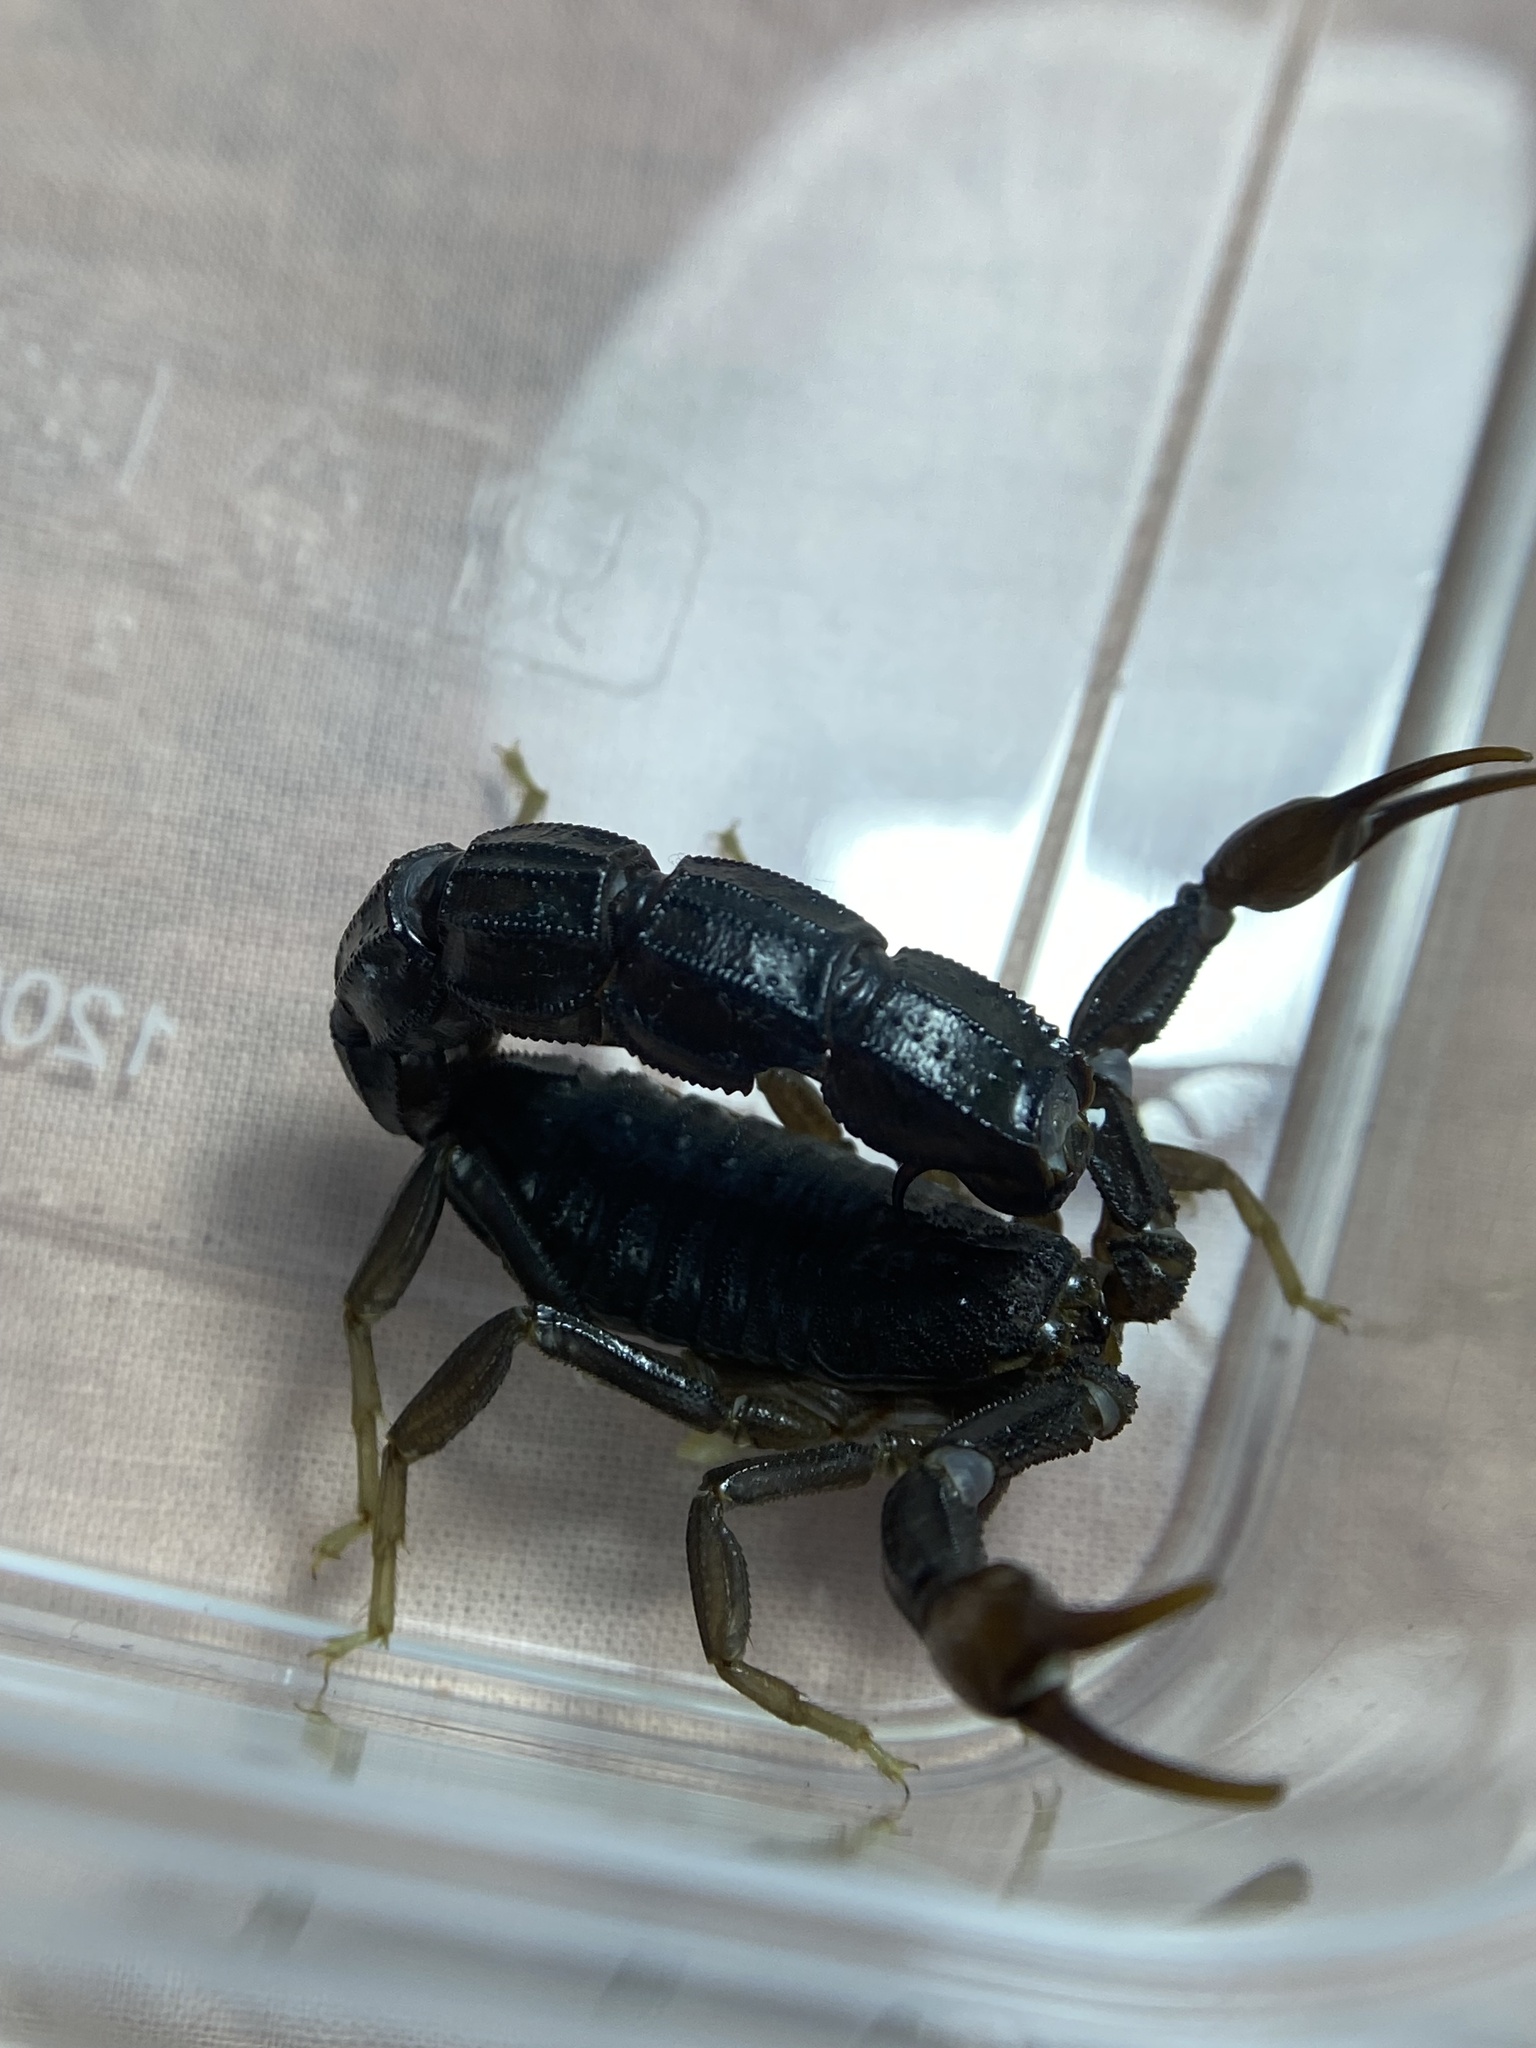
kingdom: Animalia
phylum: Arthropoda
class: Arachnida
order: Scorpiones
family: Buthidae
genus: Androctonus
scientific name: Androctonus
